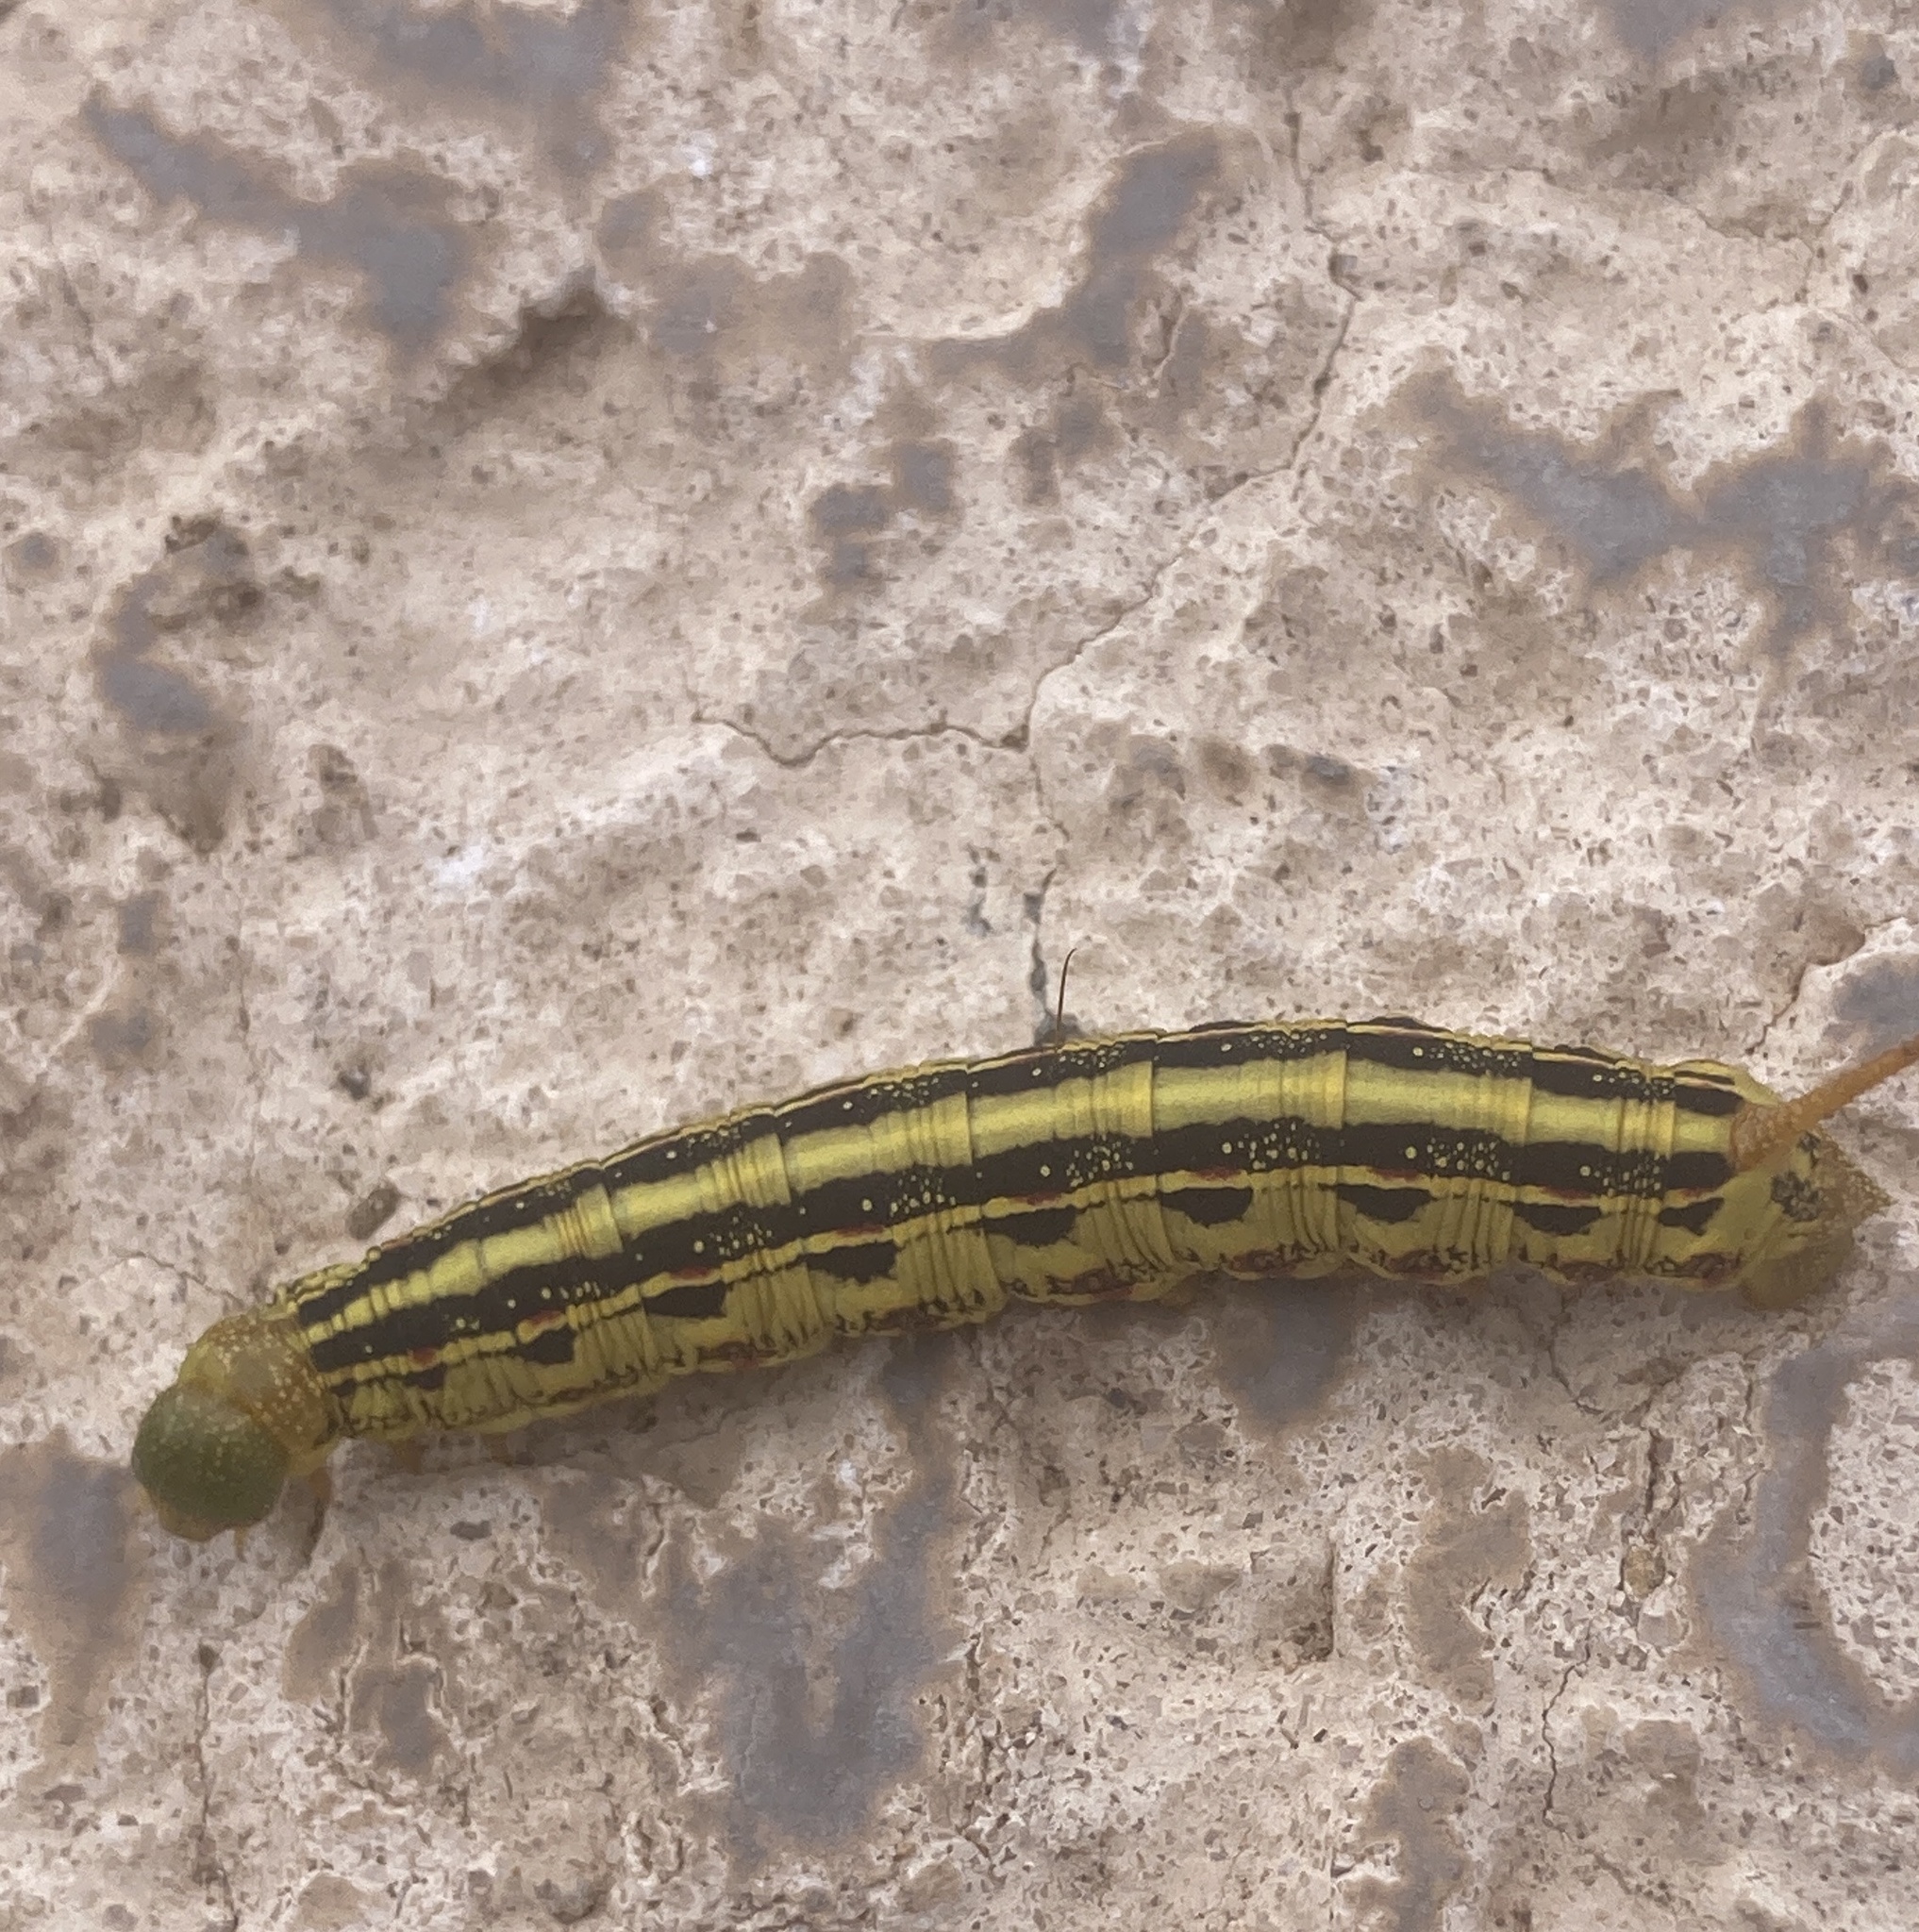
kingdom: Animalia
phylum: Arthropoda
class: Insecta
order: Lepidoptera
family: Sphingidae
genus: Hyles
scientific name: Hyles lineata
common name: White-lined sphinx
